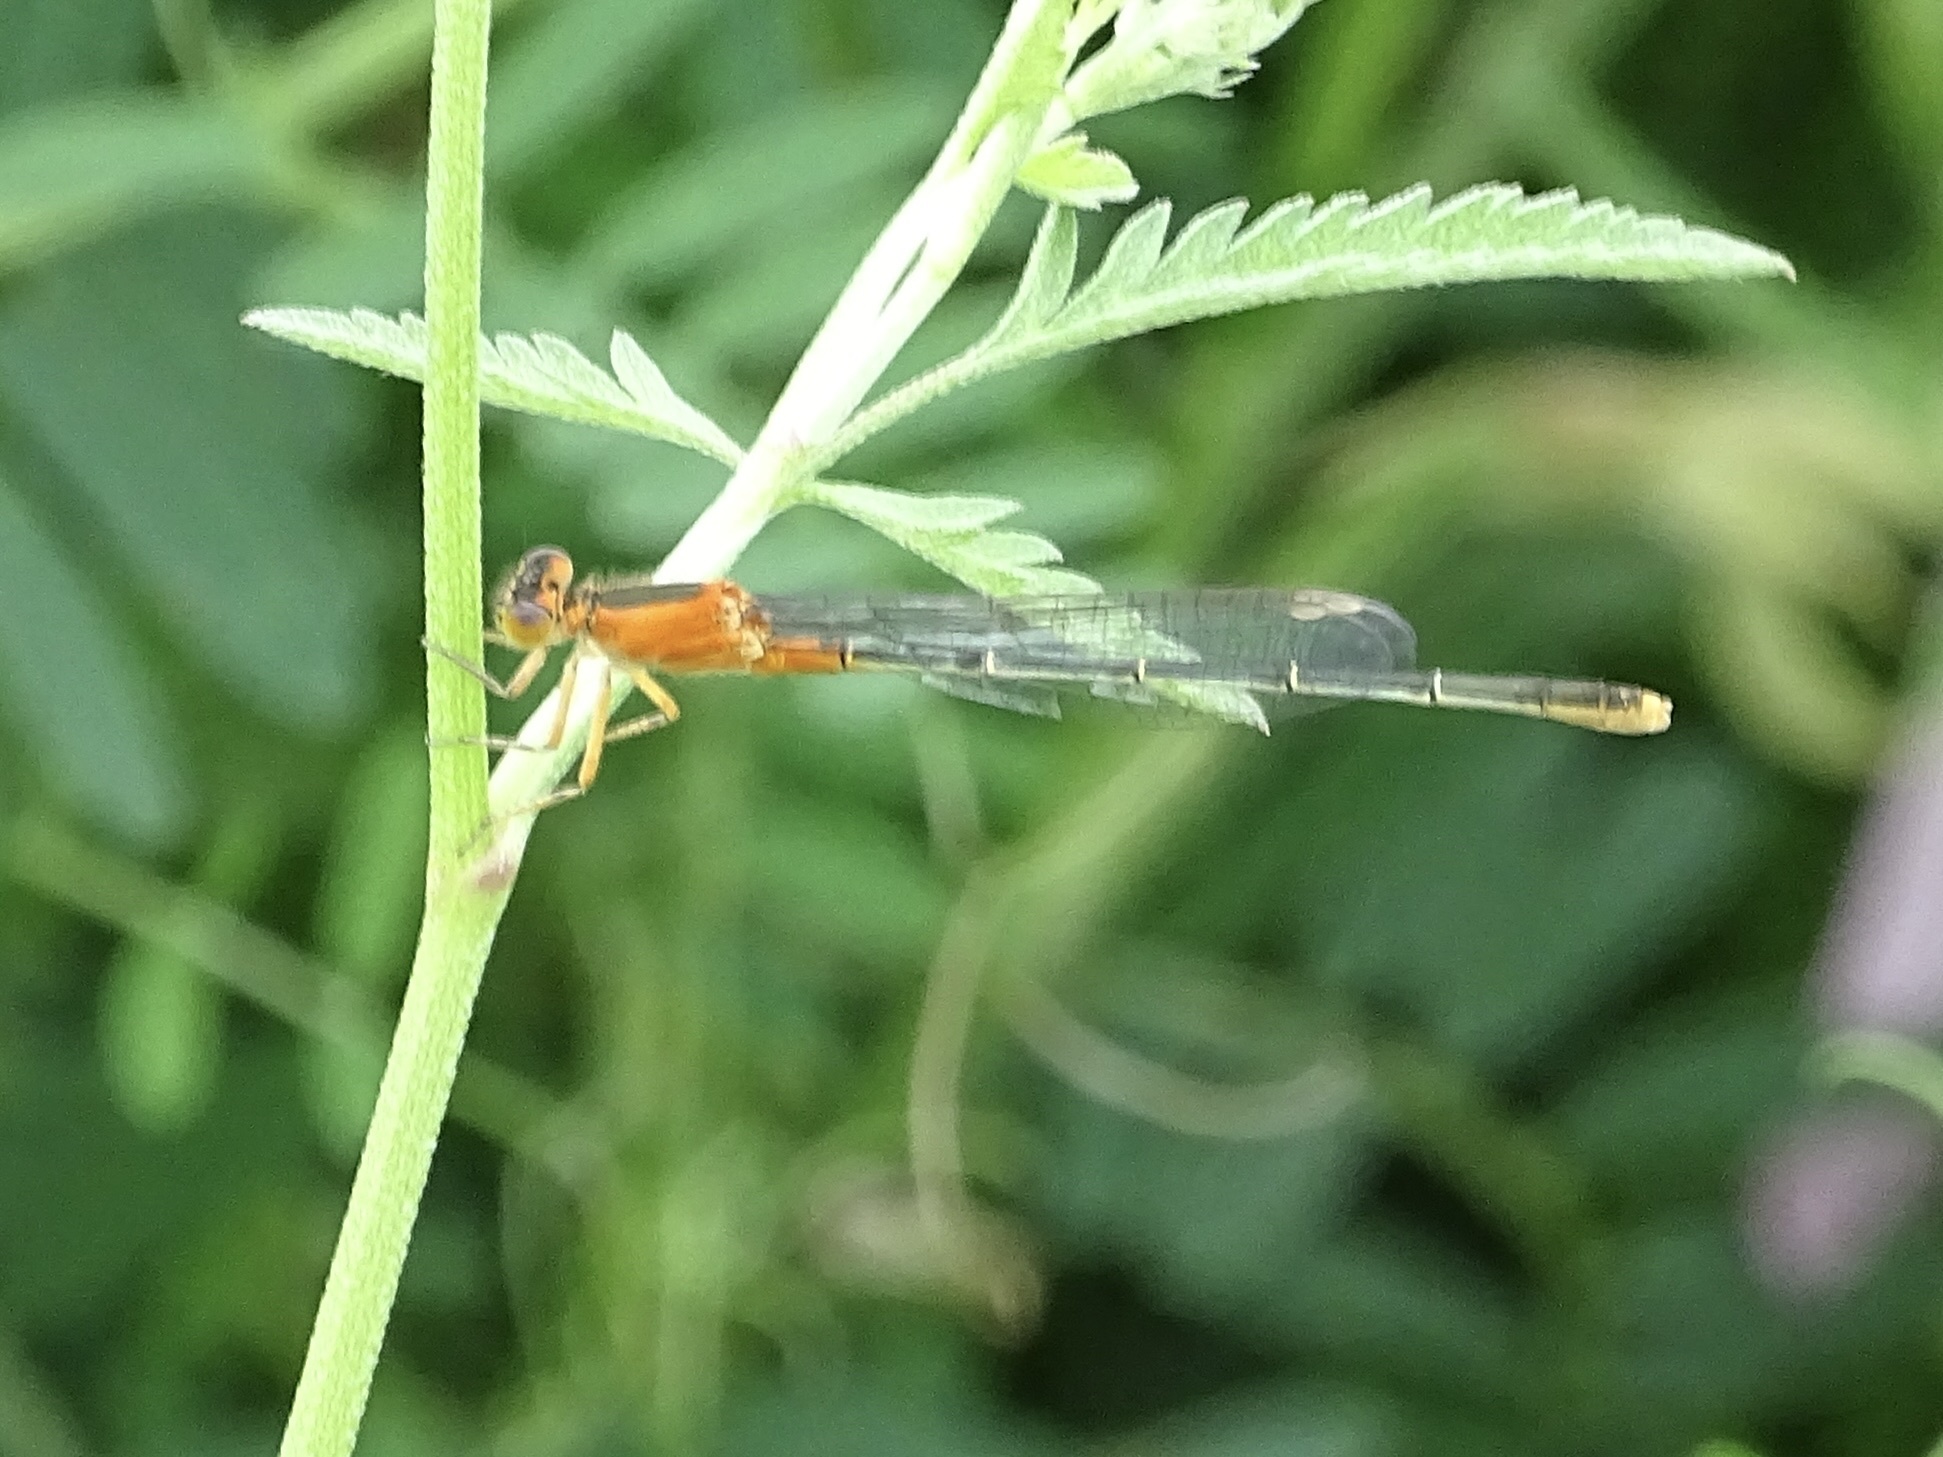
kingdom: Animalia
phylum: Arthropoda
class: Insecta
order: Odonata
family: Coenagrionidae
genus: Ischnura
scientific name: Ischnura ramburii
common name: Rambur's forktail
